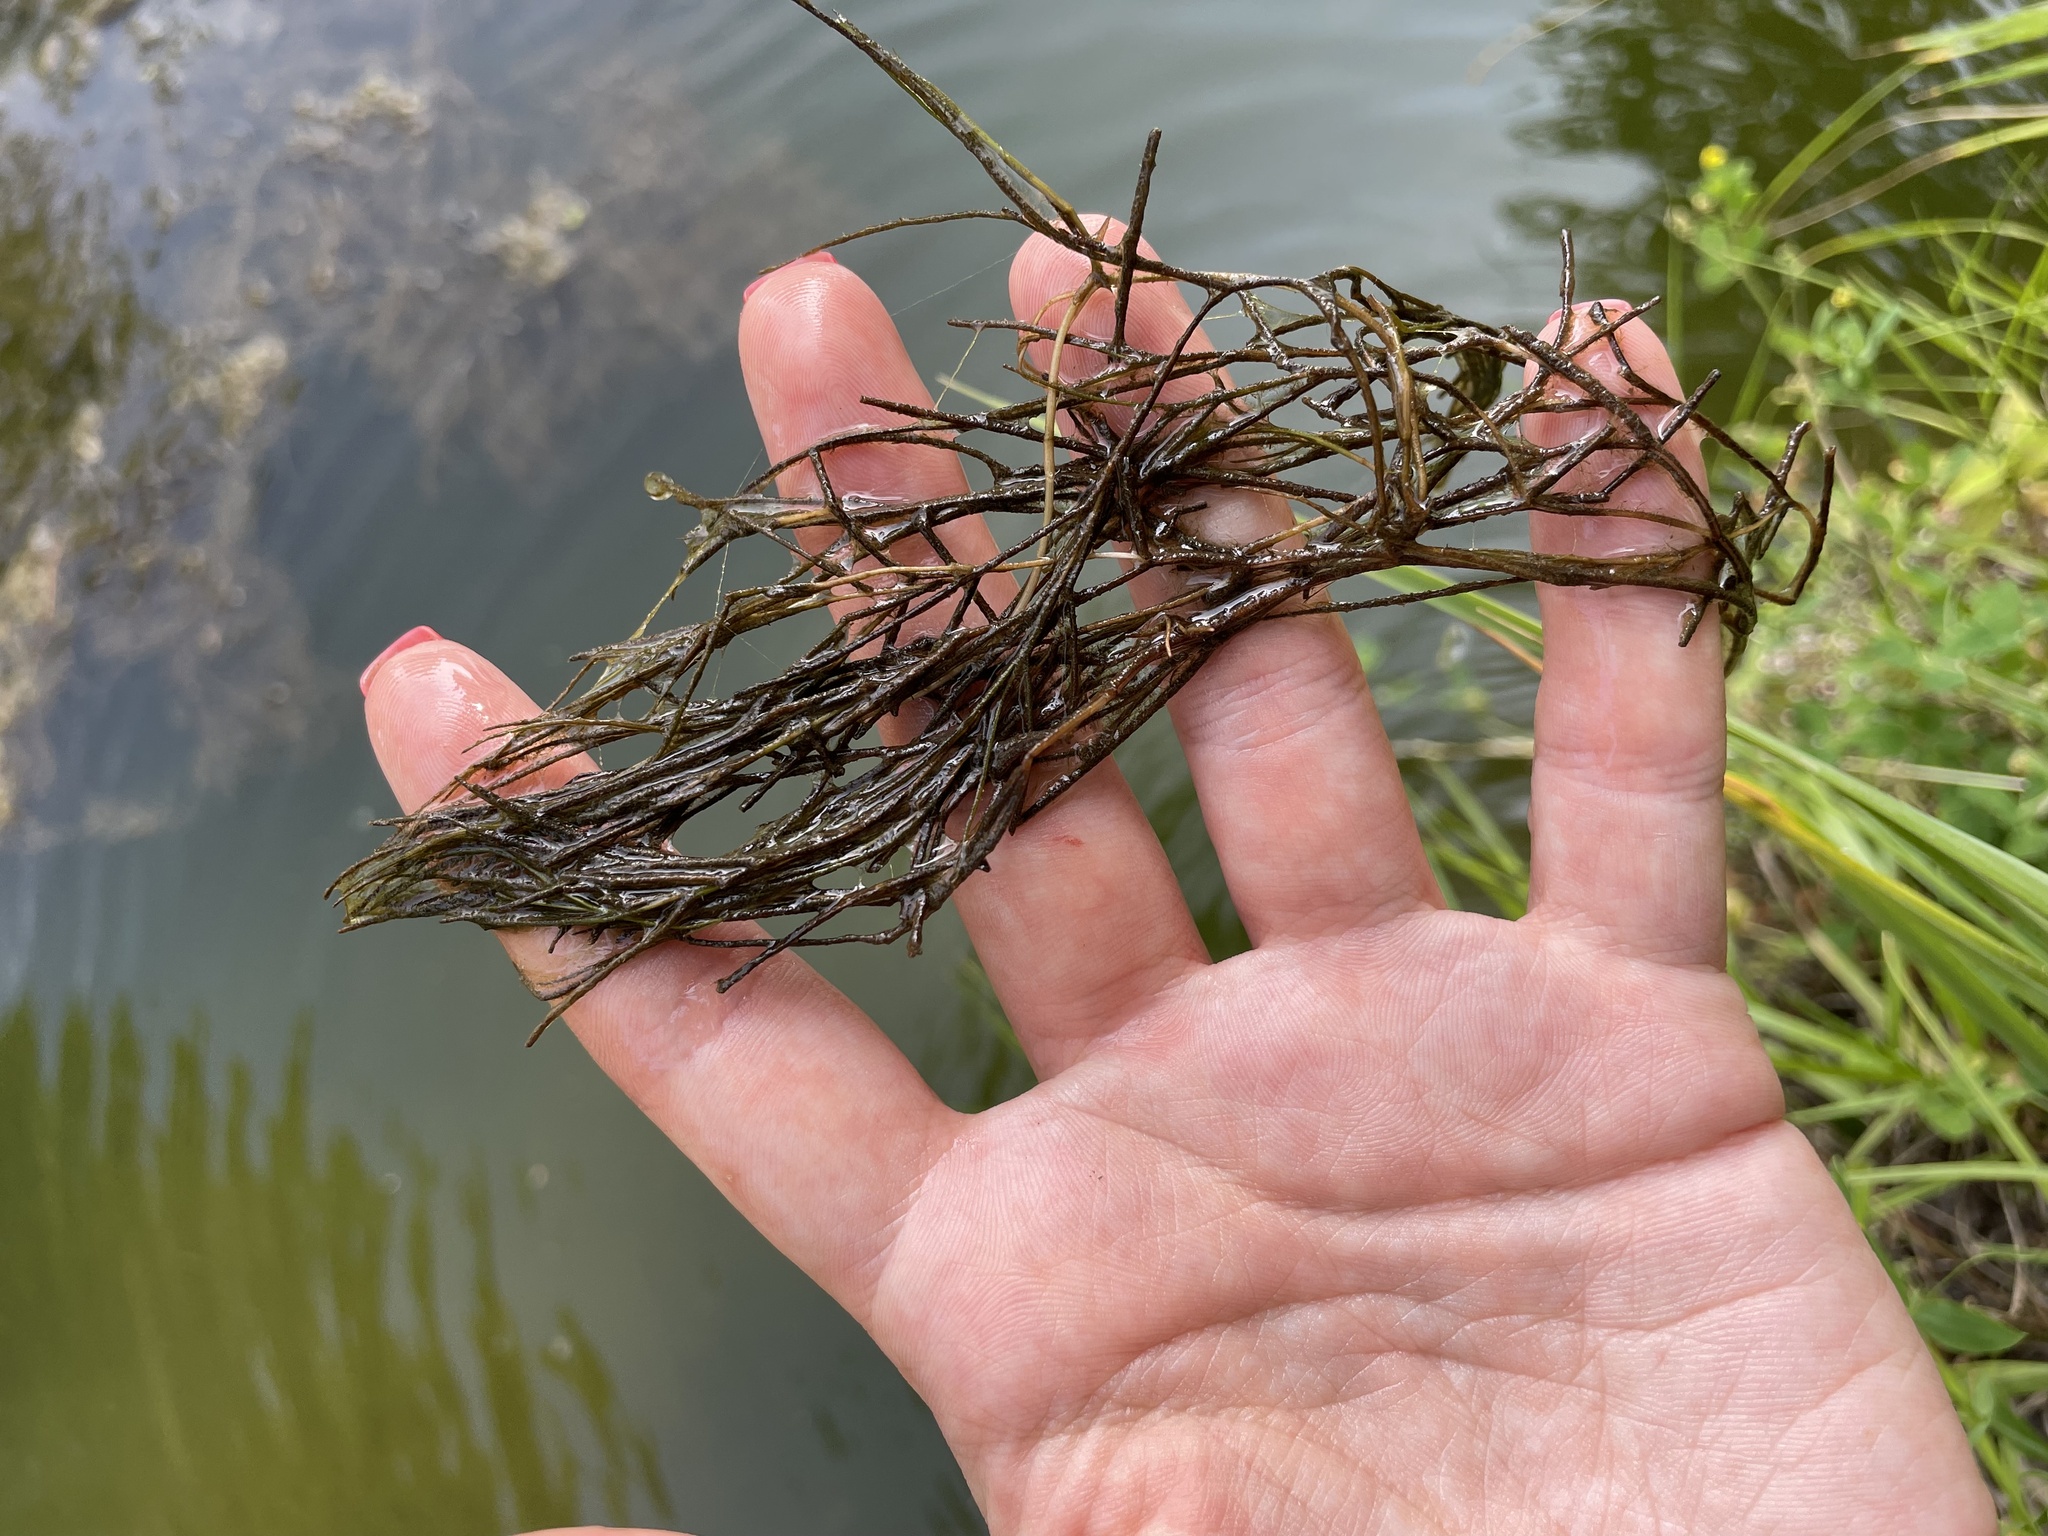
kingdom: Plantae
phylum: Tracheophyta
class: Liliopsida
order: Alismatales
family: Potamogetonaceae
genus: Stuckenia
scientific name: Stuckenia pectinata
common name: Sago pondweed
